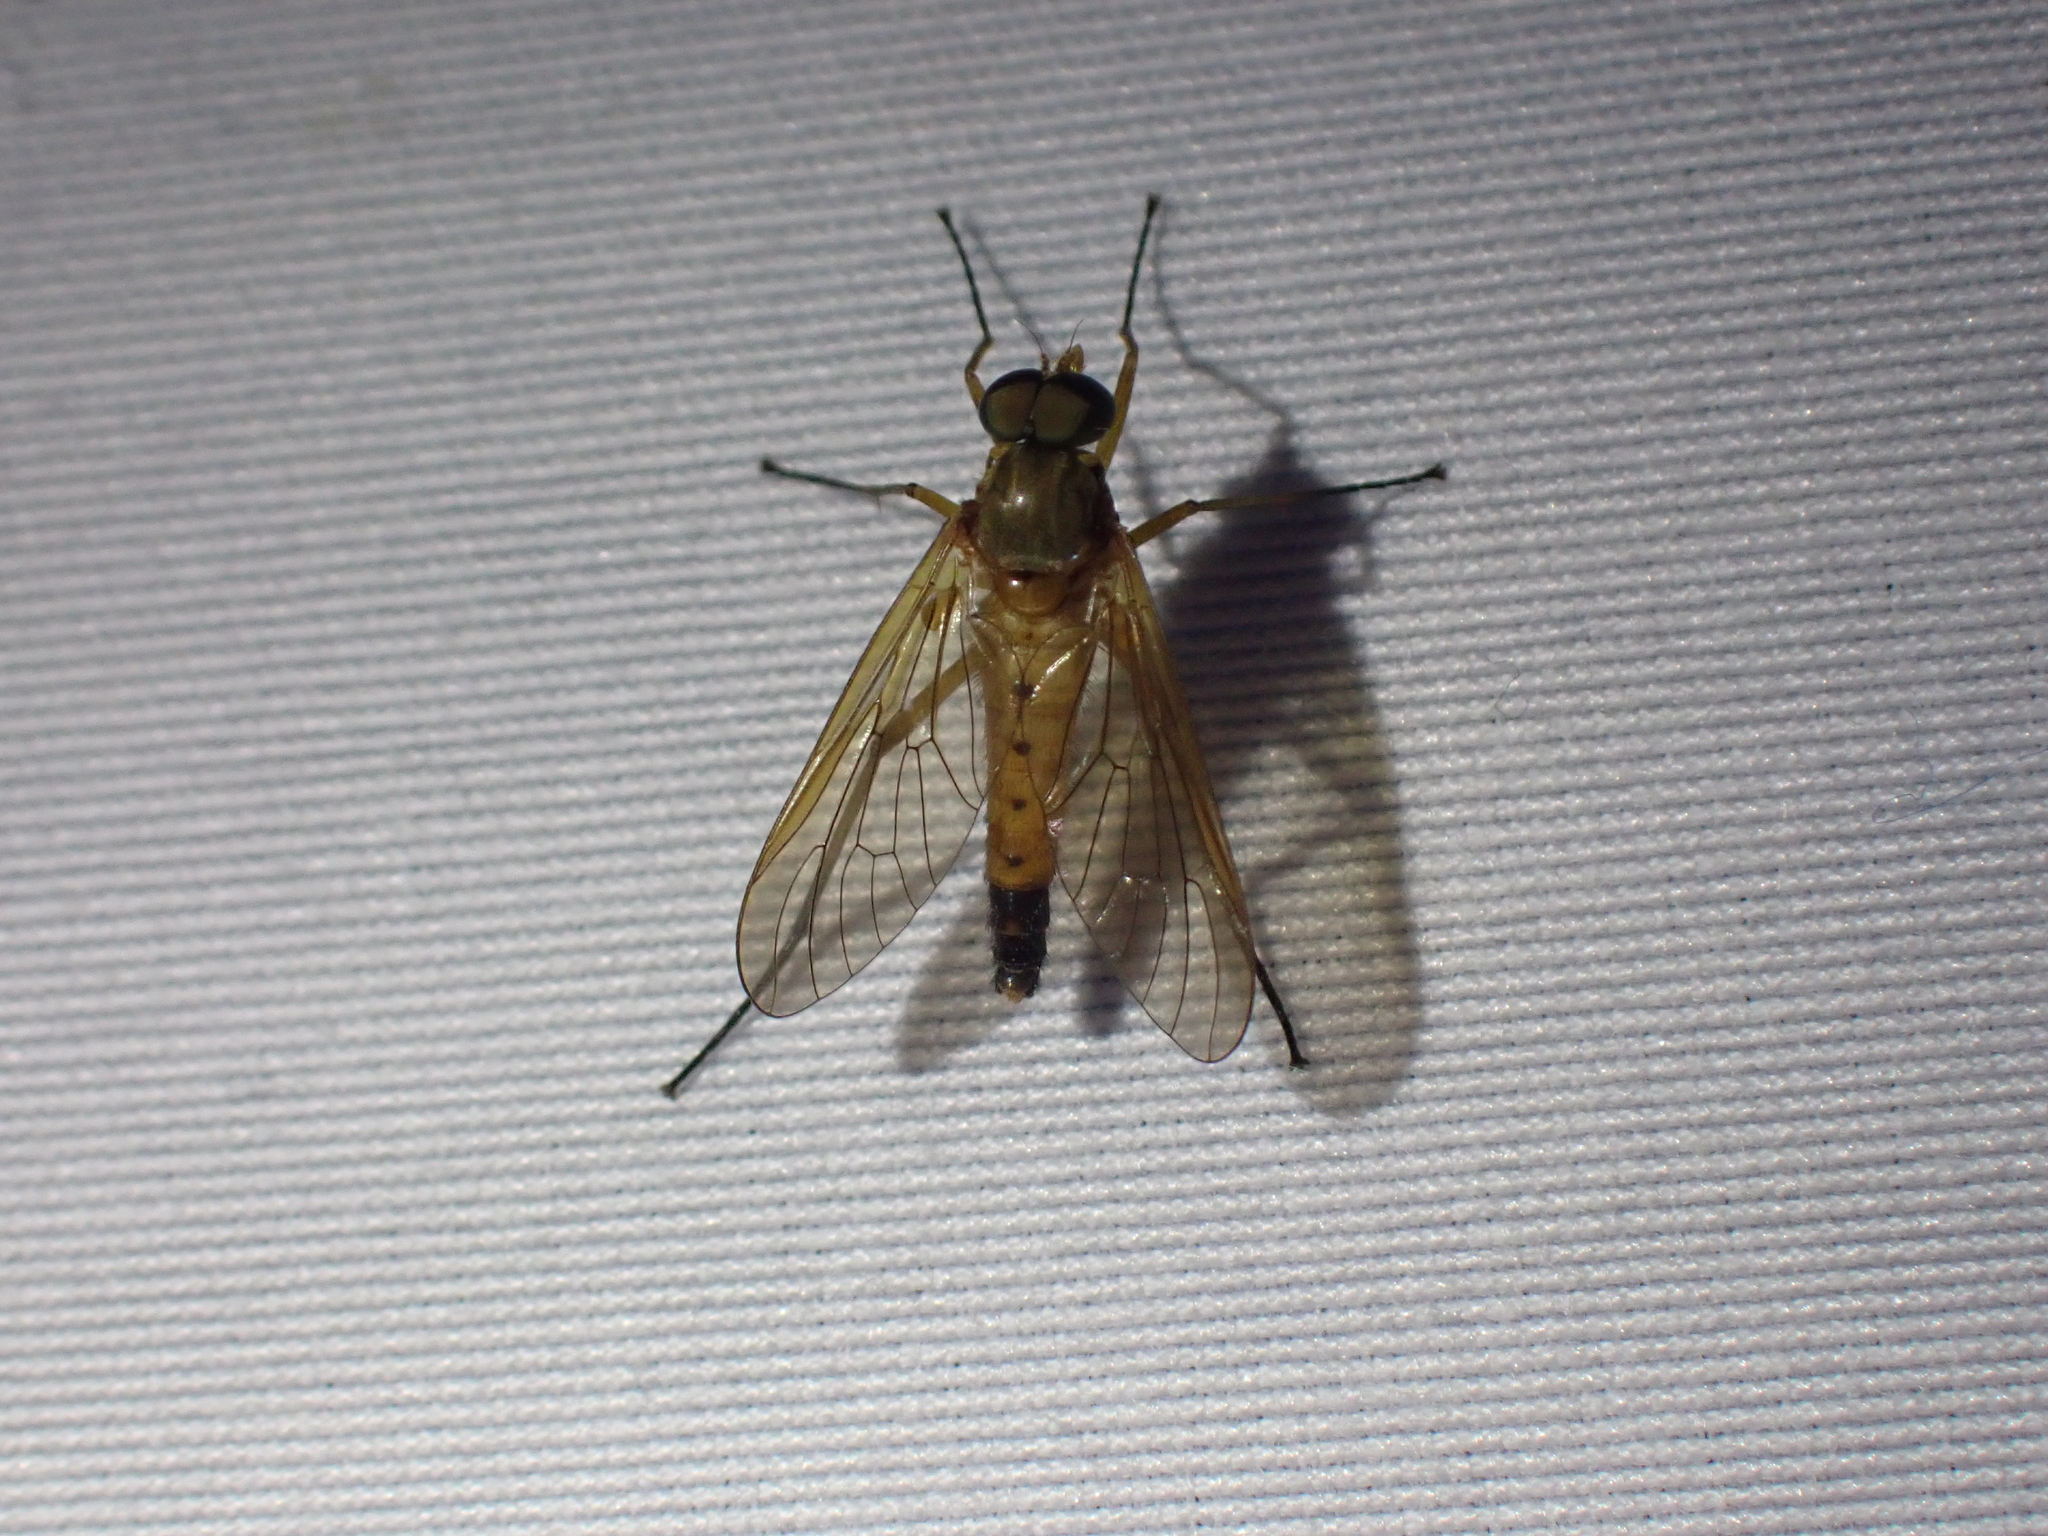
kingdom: Animalia
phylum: Arthropoda
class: Insecta
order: Diptera
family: Rhagionidae
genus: Rhagio
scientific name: Rhagio tringaria
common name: Marsh snipefly
